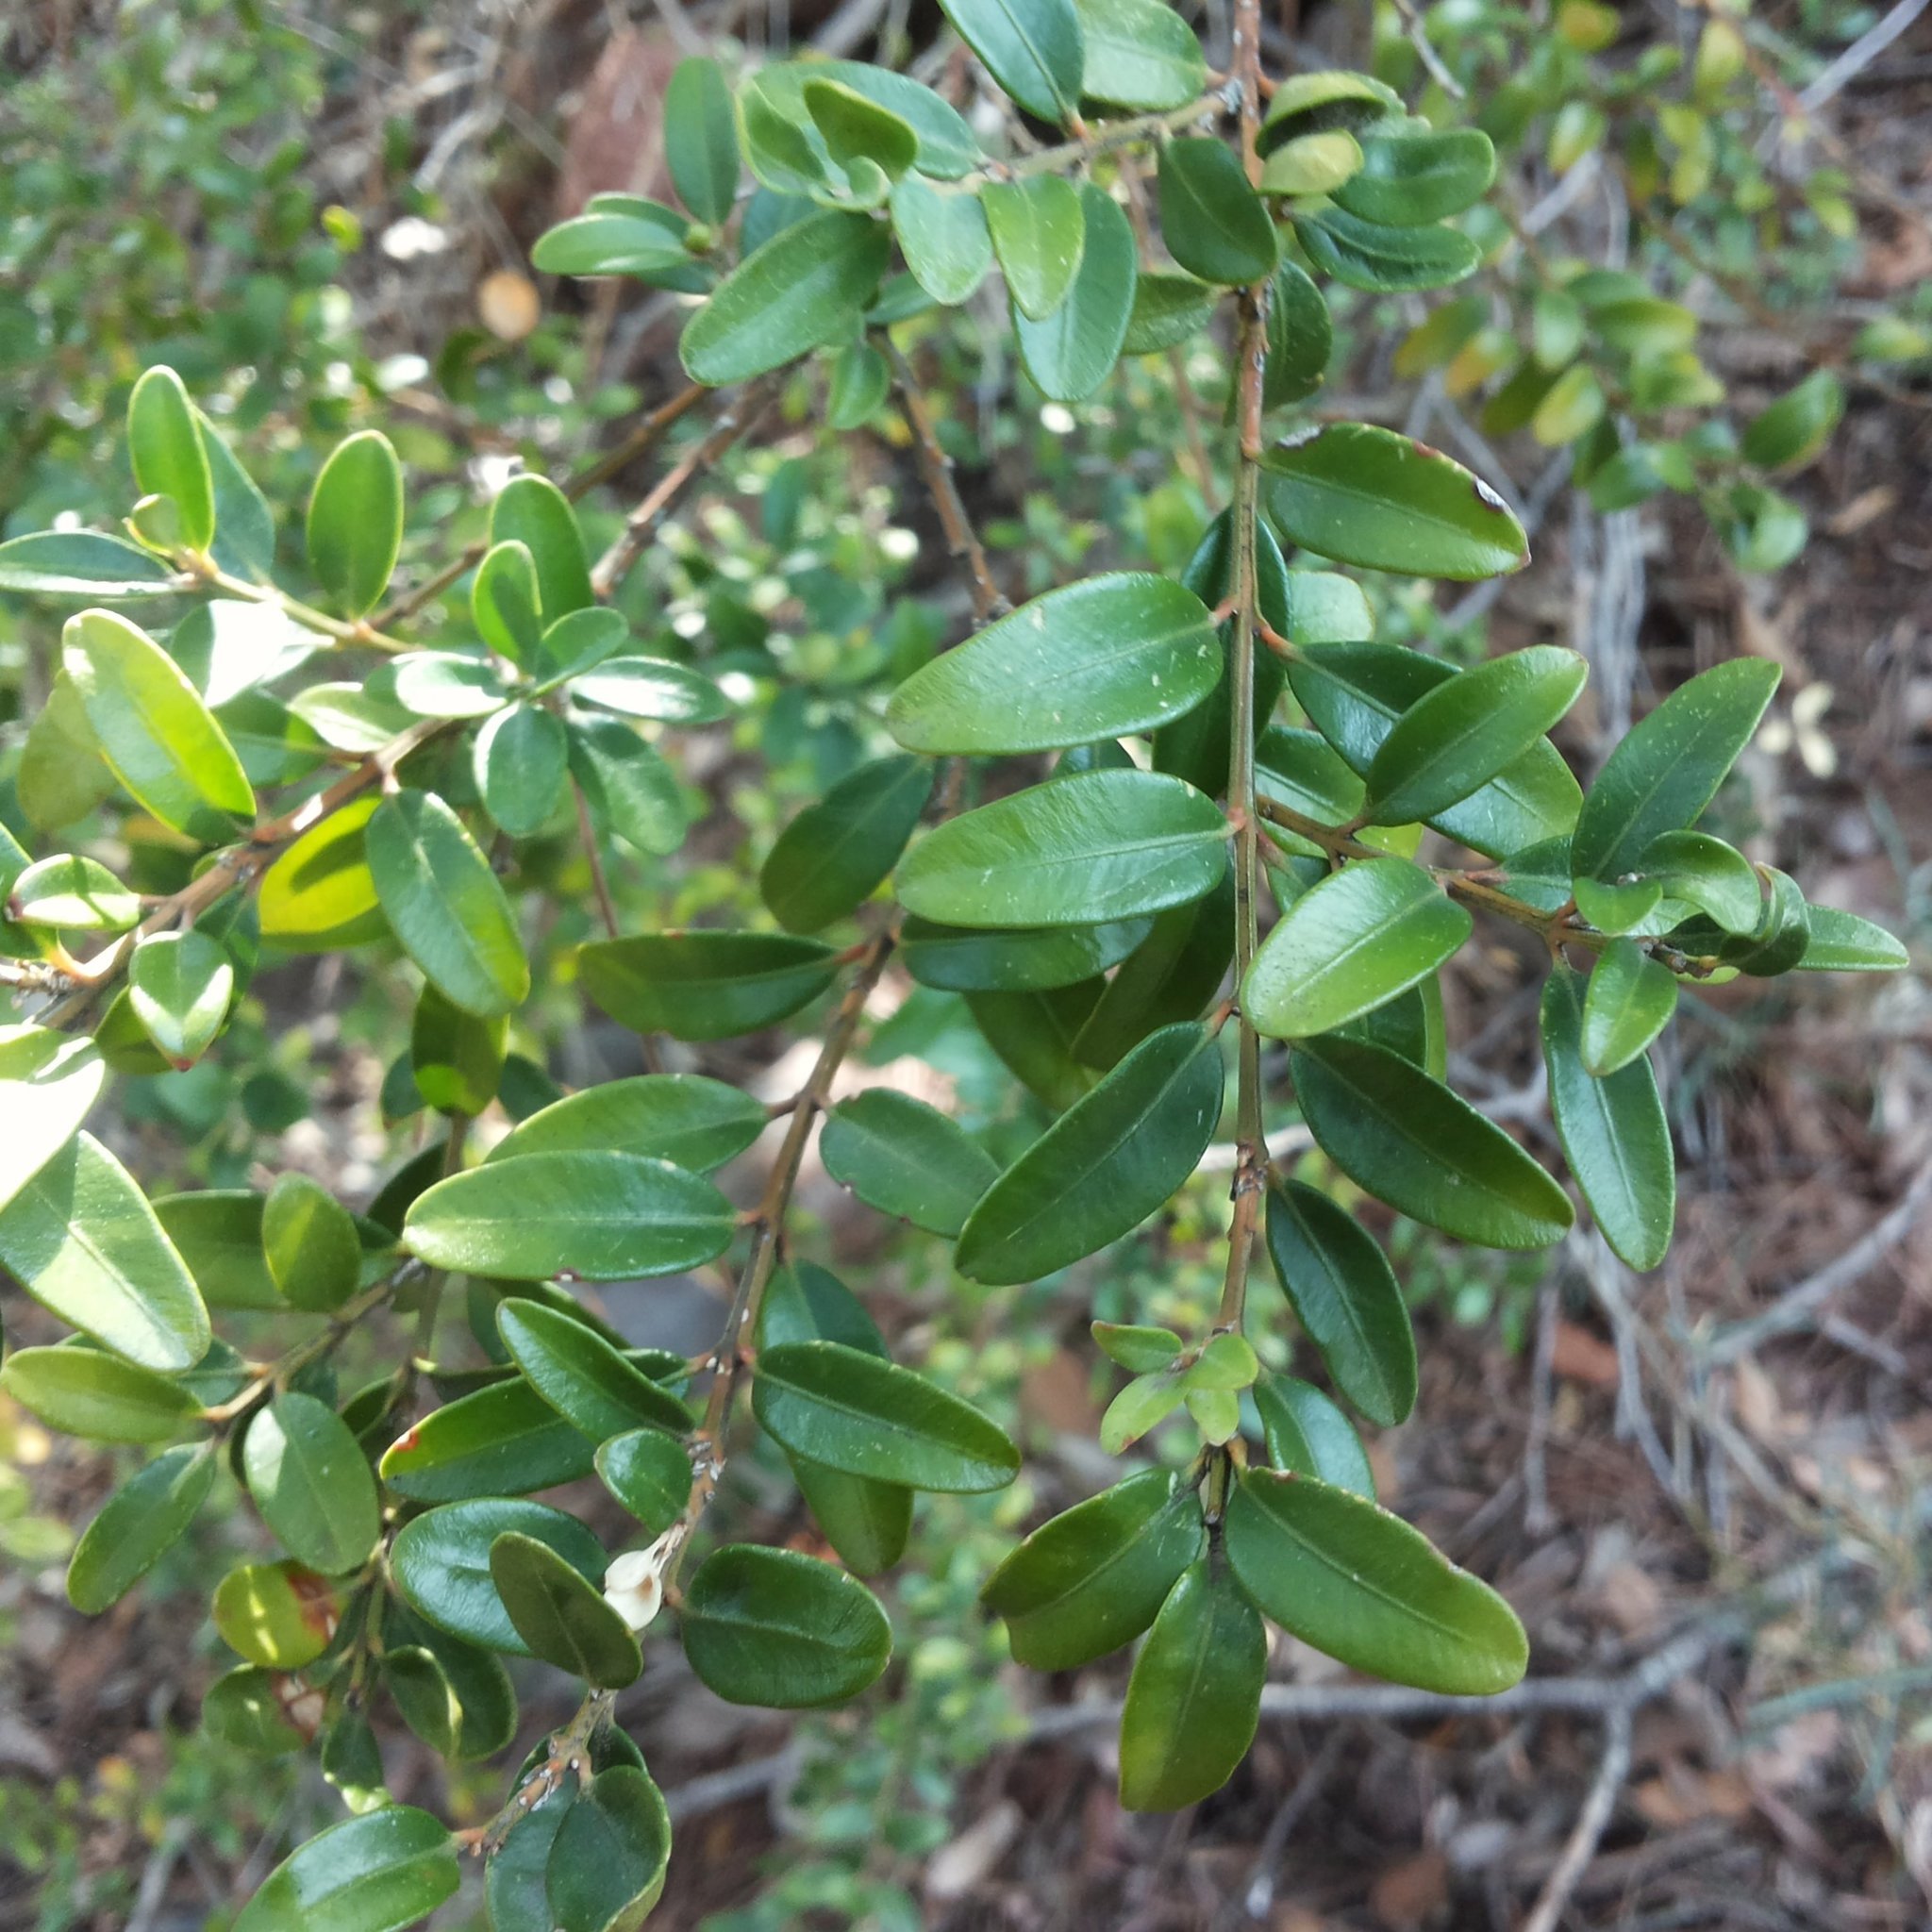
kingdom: Plantae
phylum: Tracheophyta
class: Magnoliopsida
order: Buxales
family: Buxaceae
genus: Buxus
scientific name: Buxus sempervirens
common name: Box
